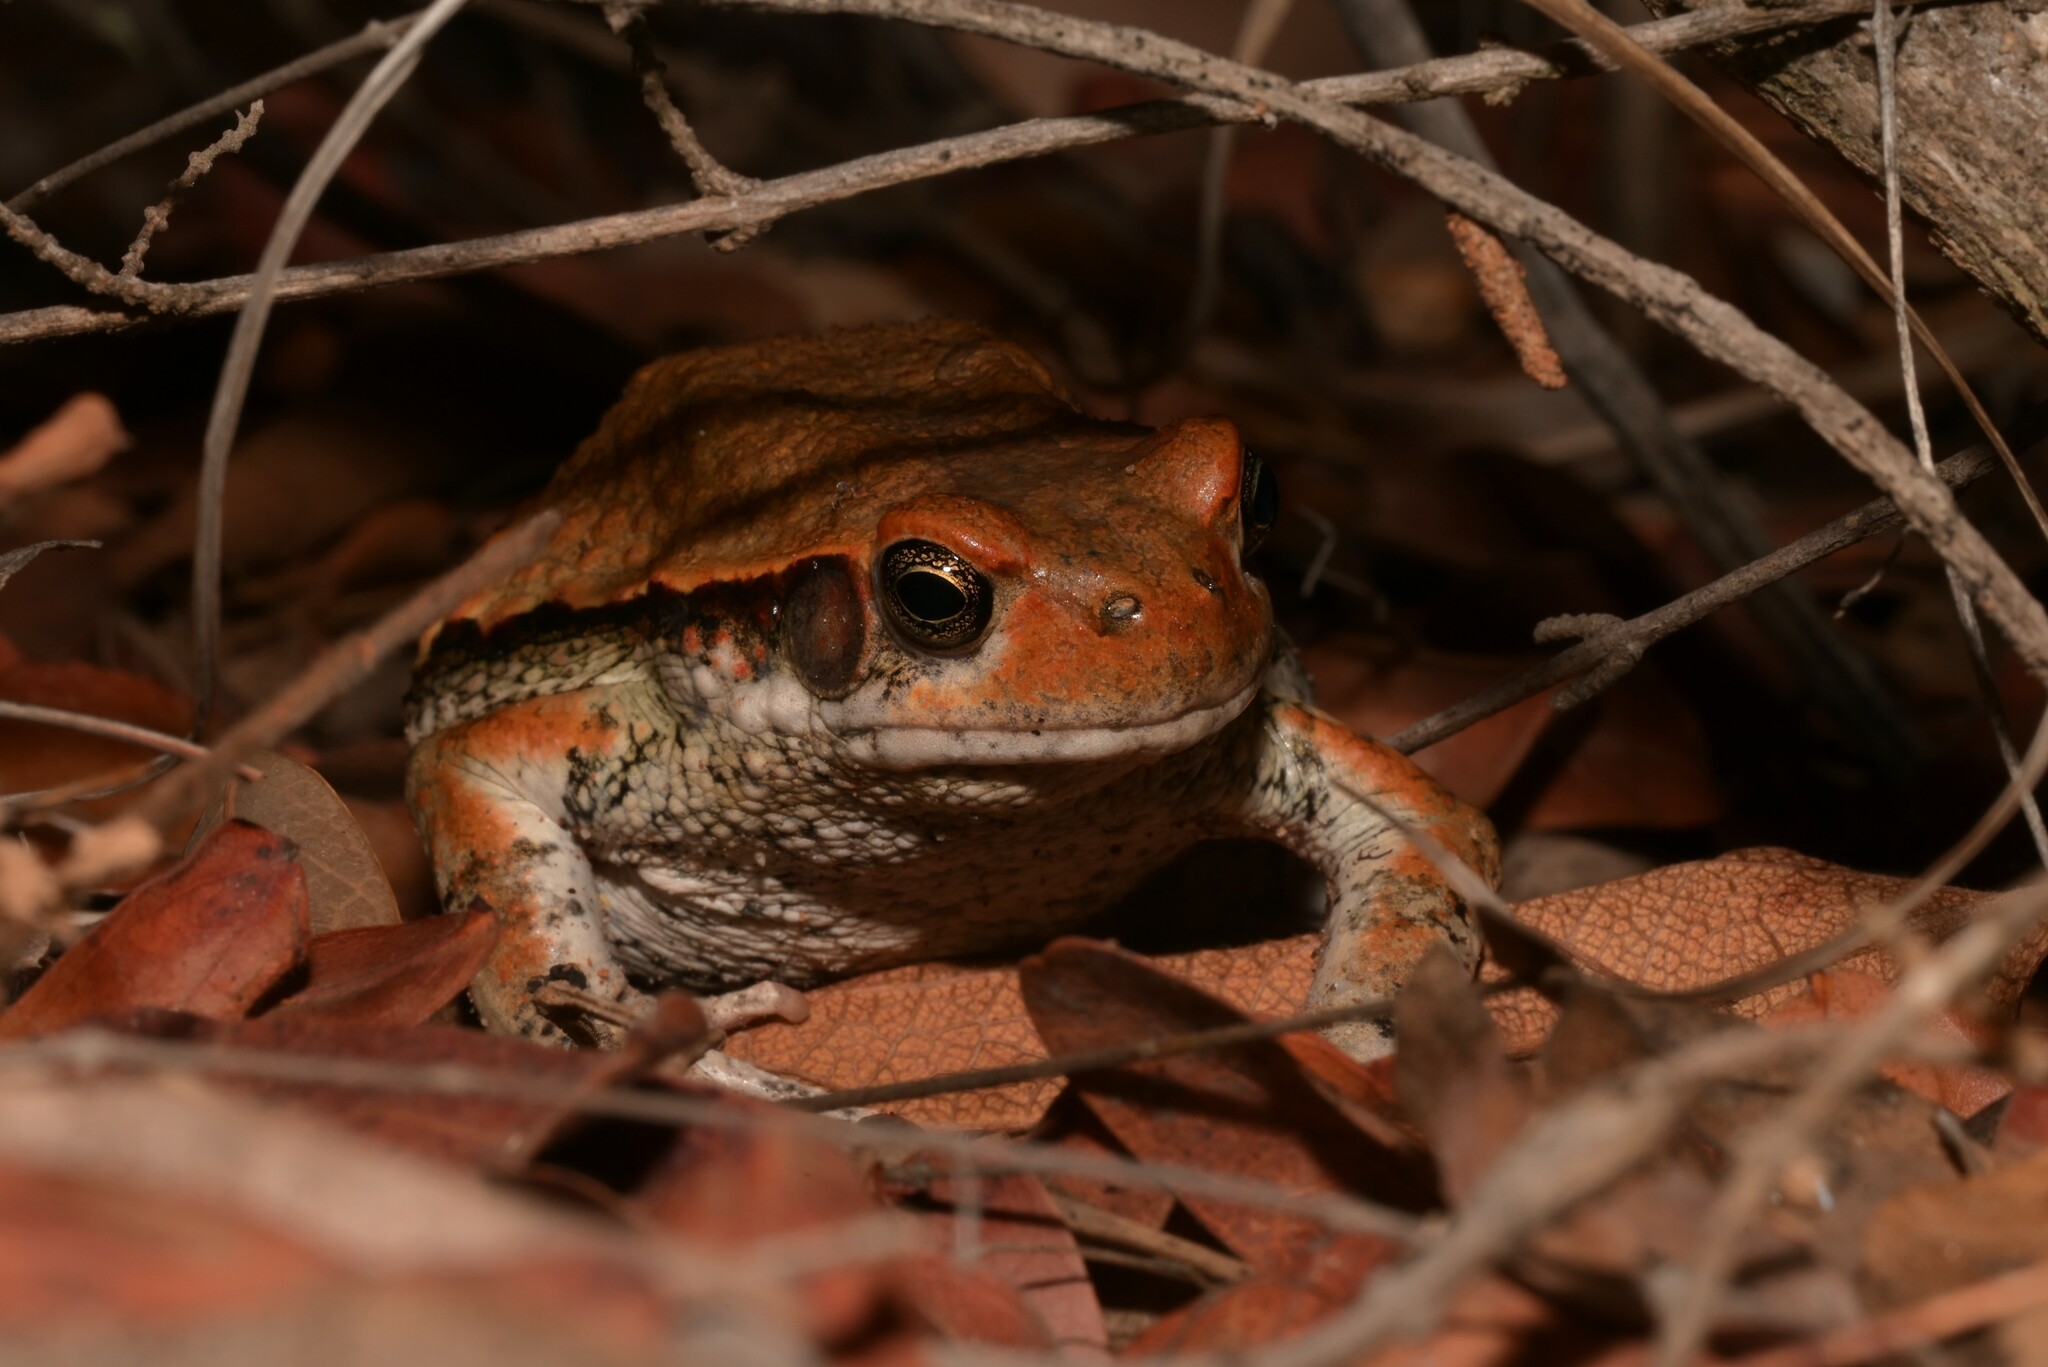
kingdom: Animalia
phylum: Chordata
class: Amphibia
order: Anura
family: Bufonidae
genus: Schismaderma
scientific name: Schismaderma carens
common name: African split-skin toad
